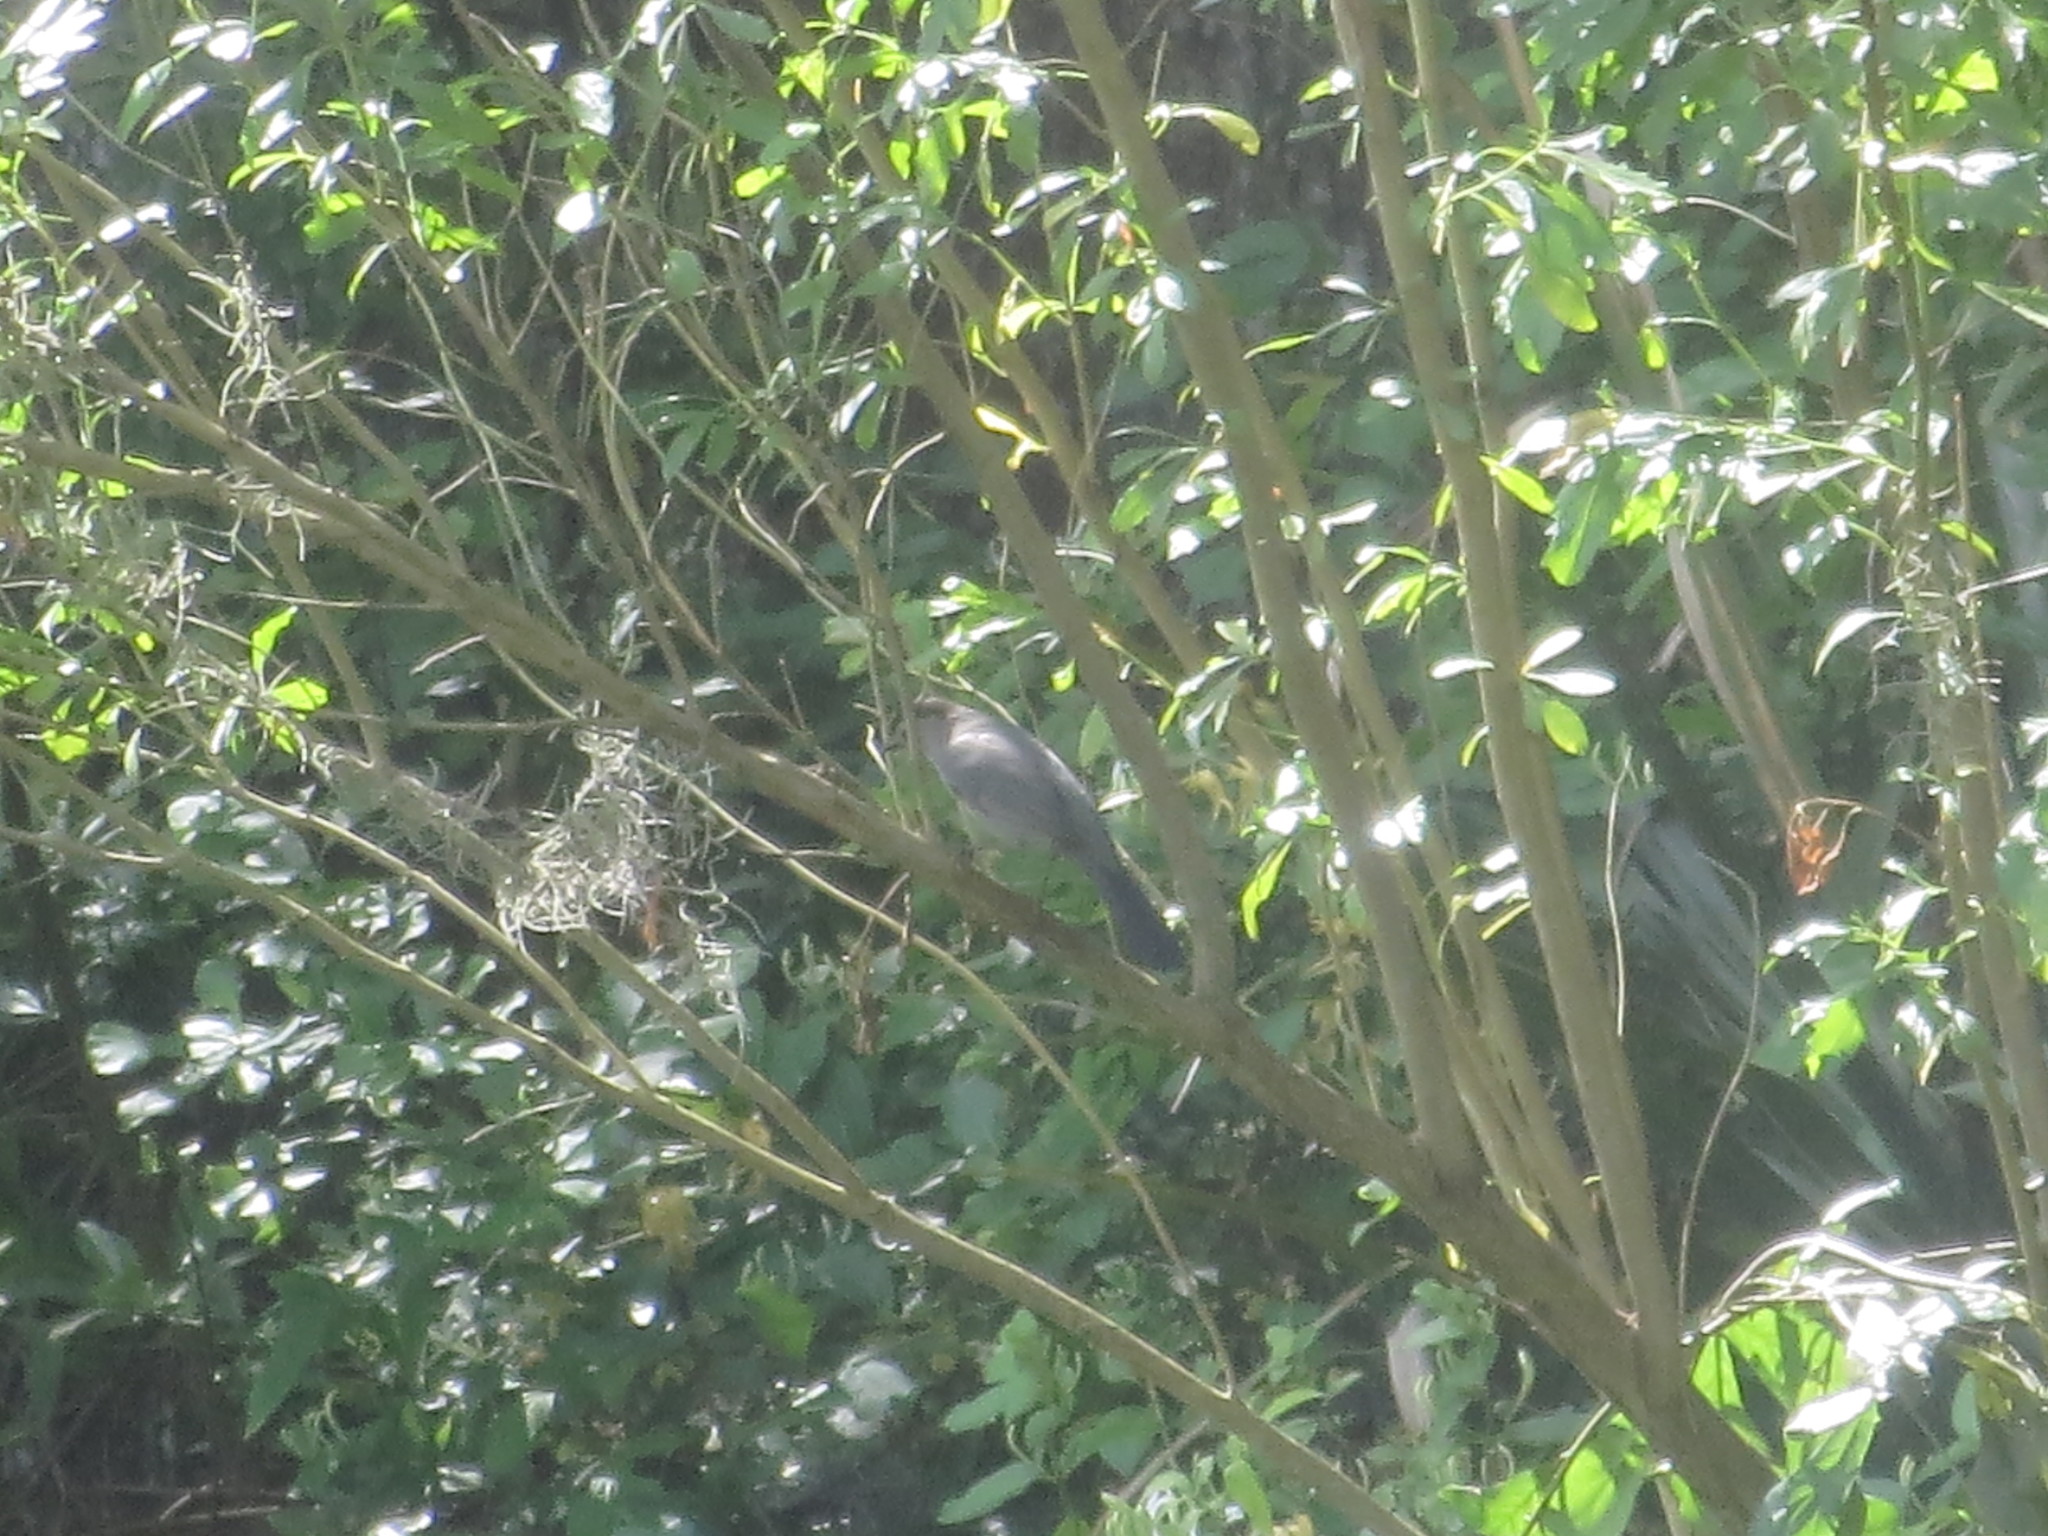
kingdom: Animalia
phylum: Chordata
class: Aves
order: Passeriformes
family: Mimidae
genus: Dumetella
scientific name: Dumetella carolinensis
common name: Gray catbird
